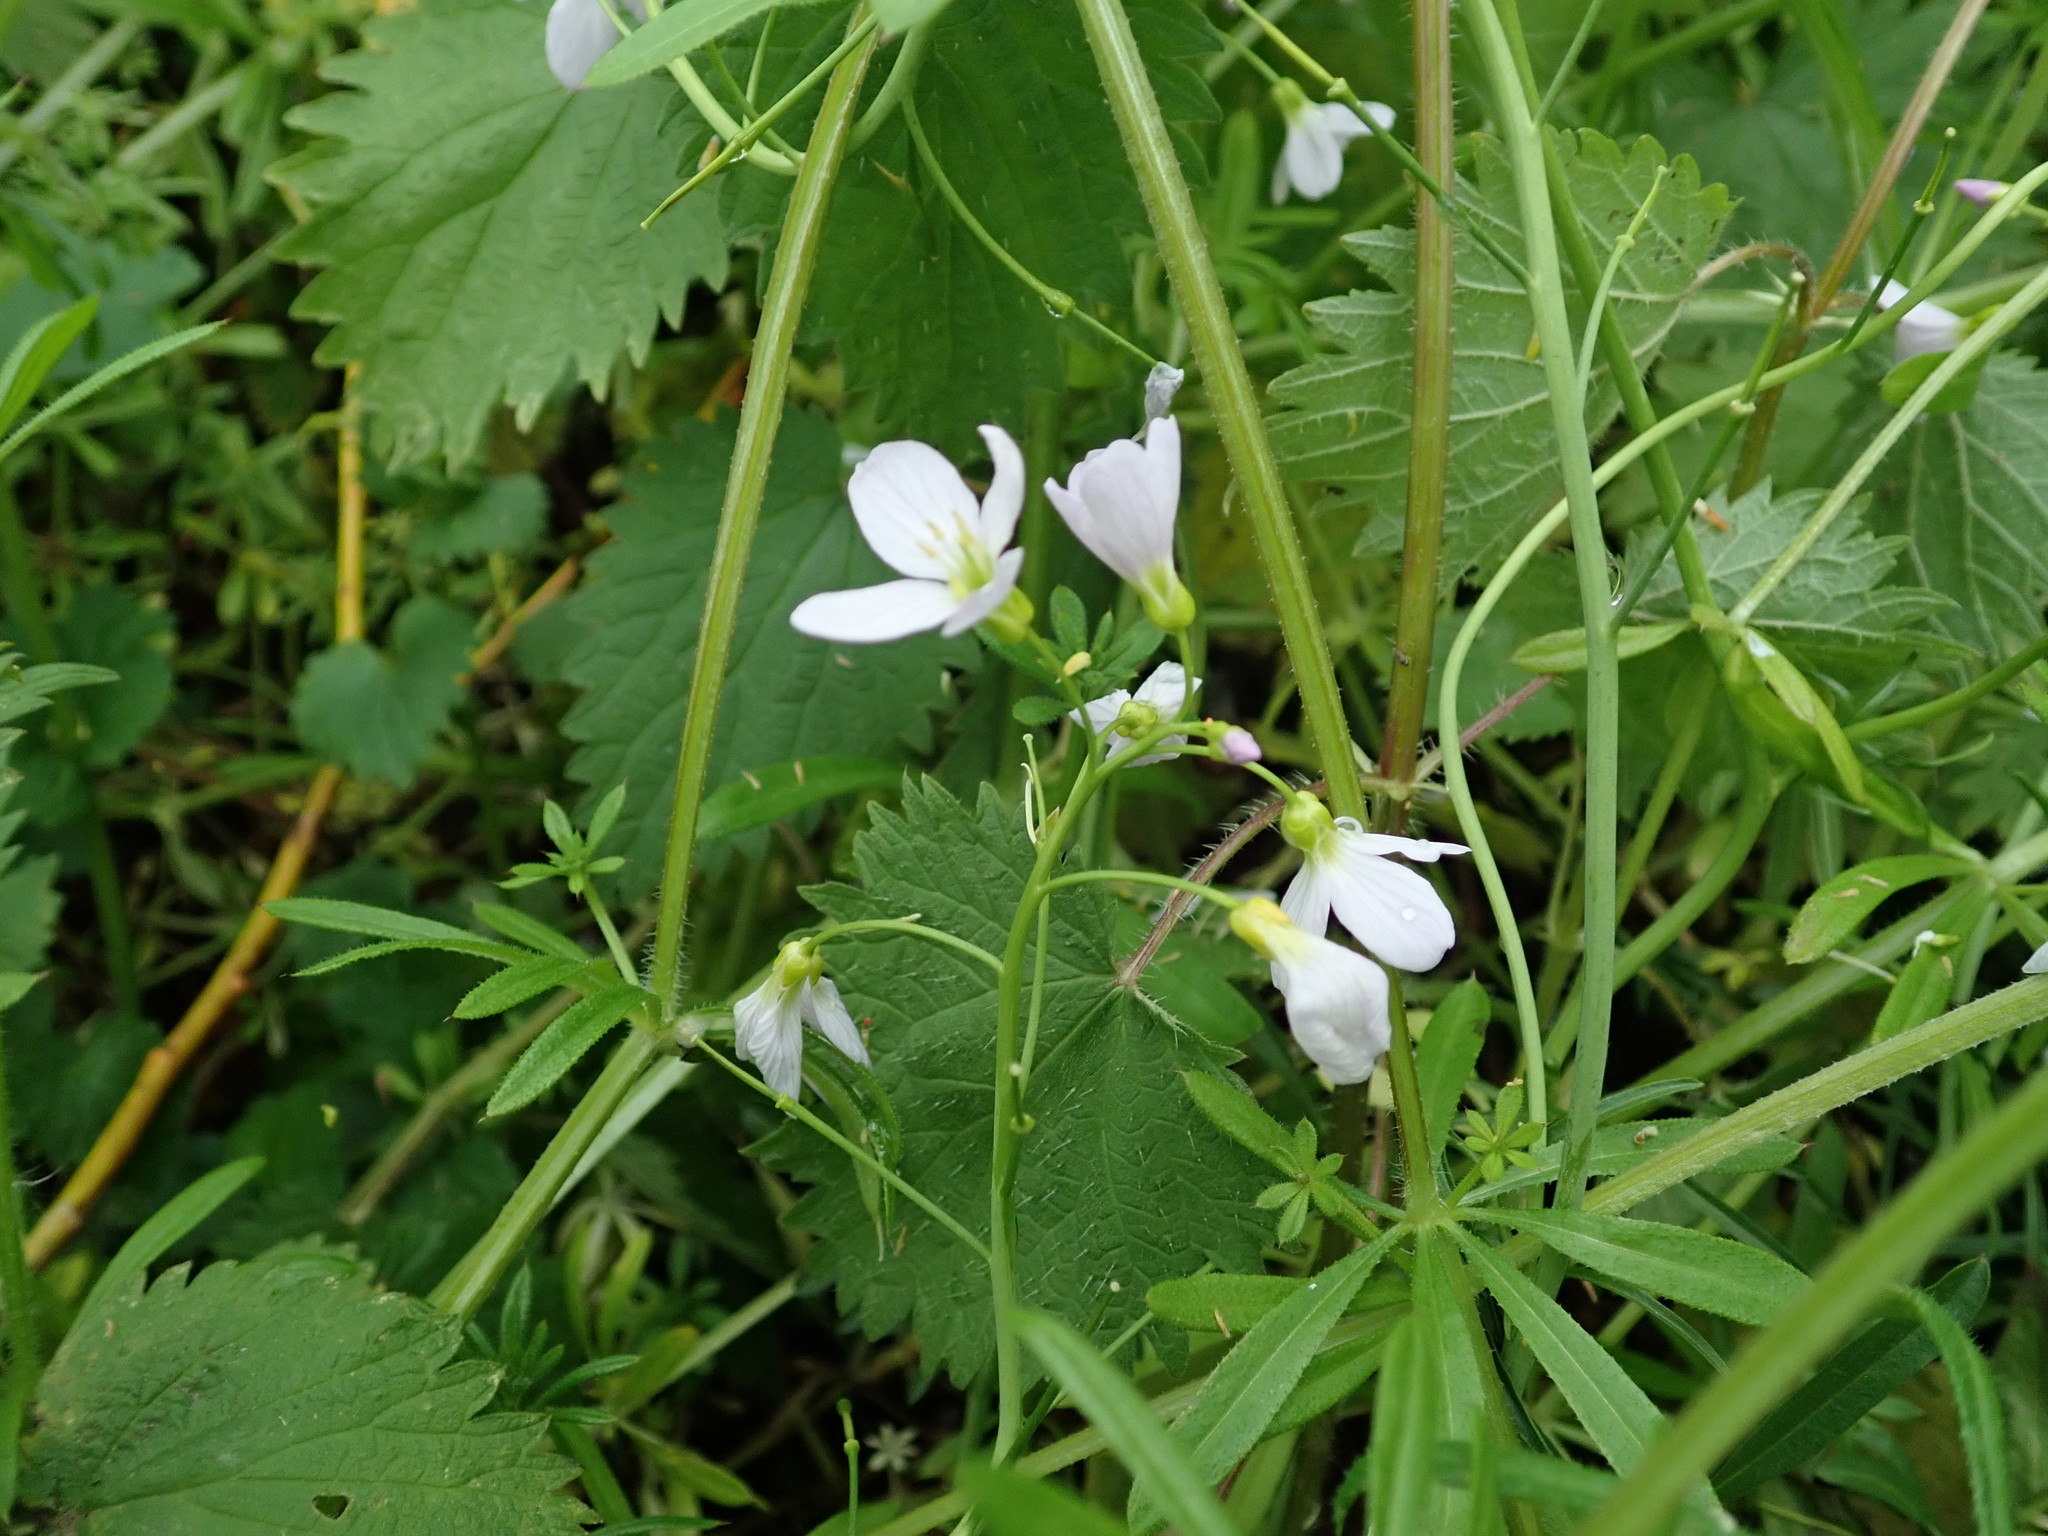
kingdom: Plantae
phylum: Tracheophyta
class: Magnoliopsida
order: Brassicales
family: Brassicaceae
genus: Cardamine
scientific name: Cardamine pratensis
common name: Cuckoo flower
